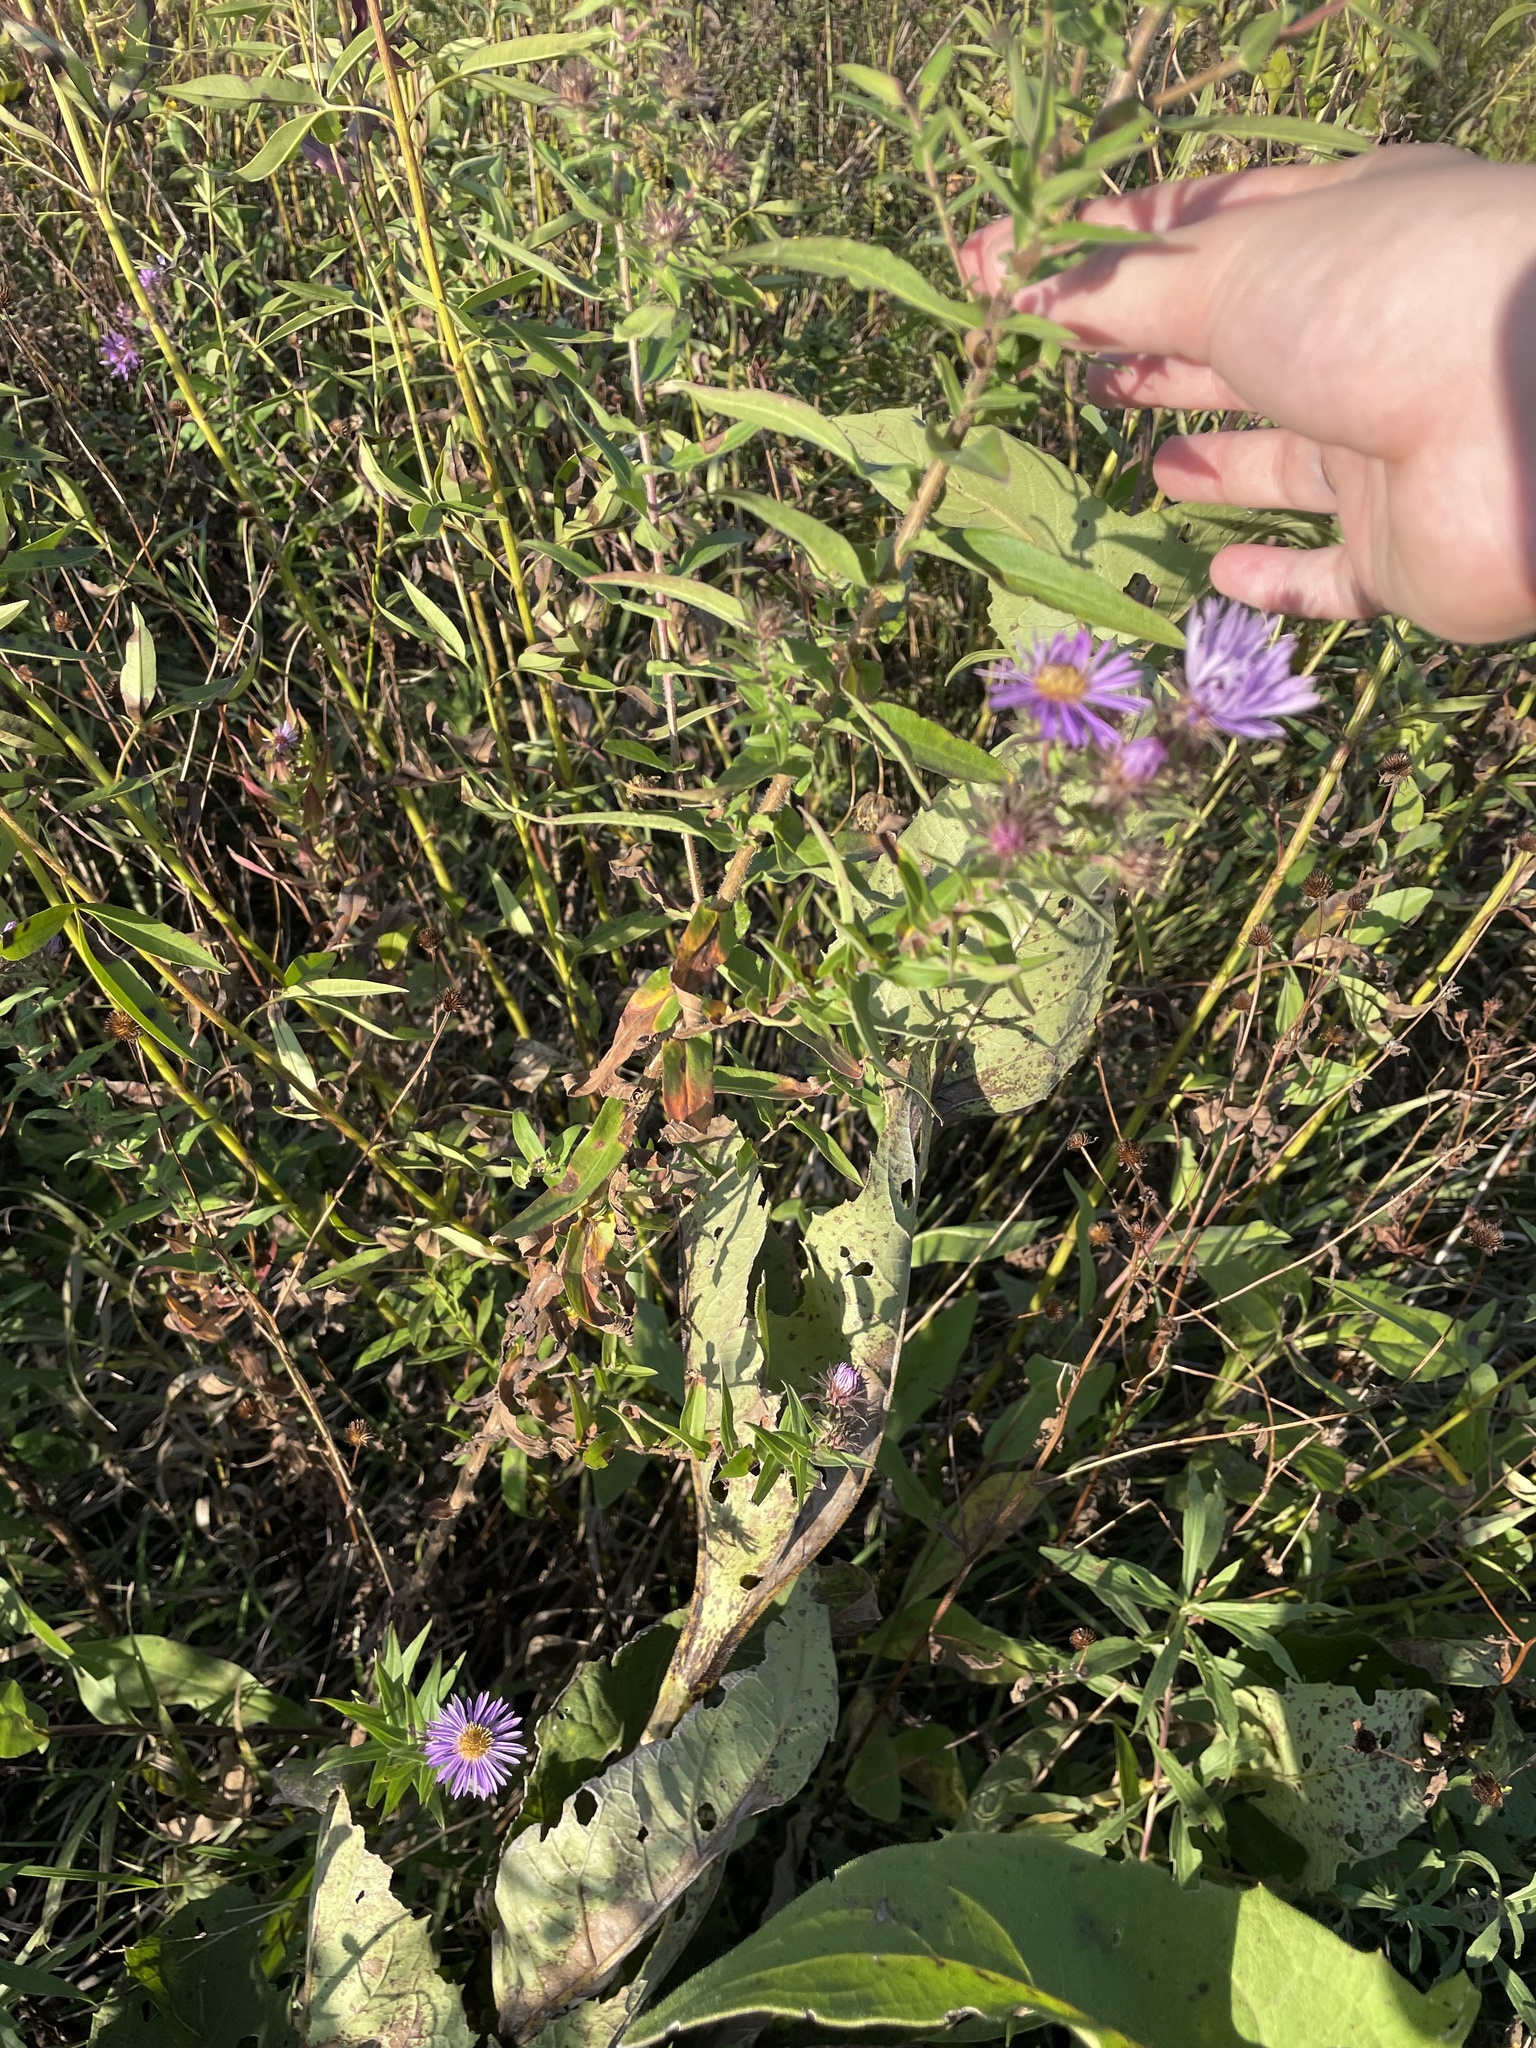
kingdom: Plantae
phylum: Tracheophyta
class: Magnoliopsida
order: Asterales
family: Asteraceae
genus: Symphyotrichum
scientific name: Symphyotrichum novae-angliae
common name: Michaelmas daisy
